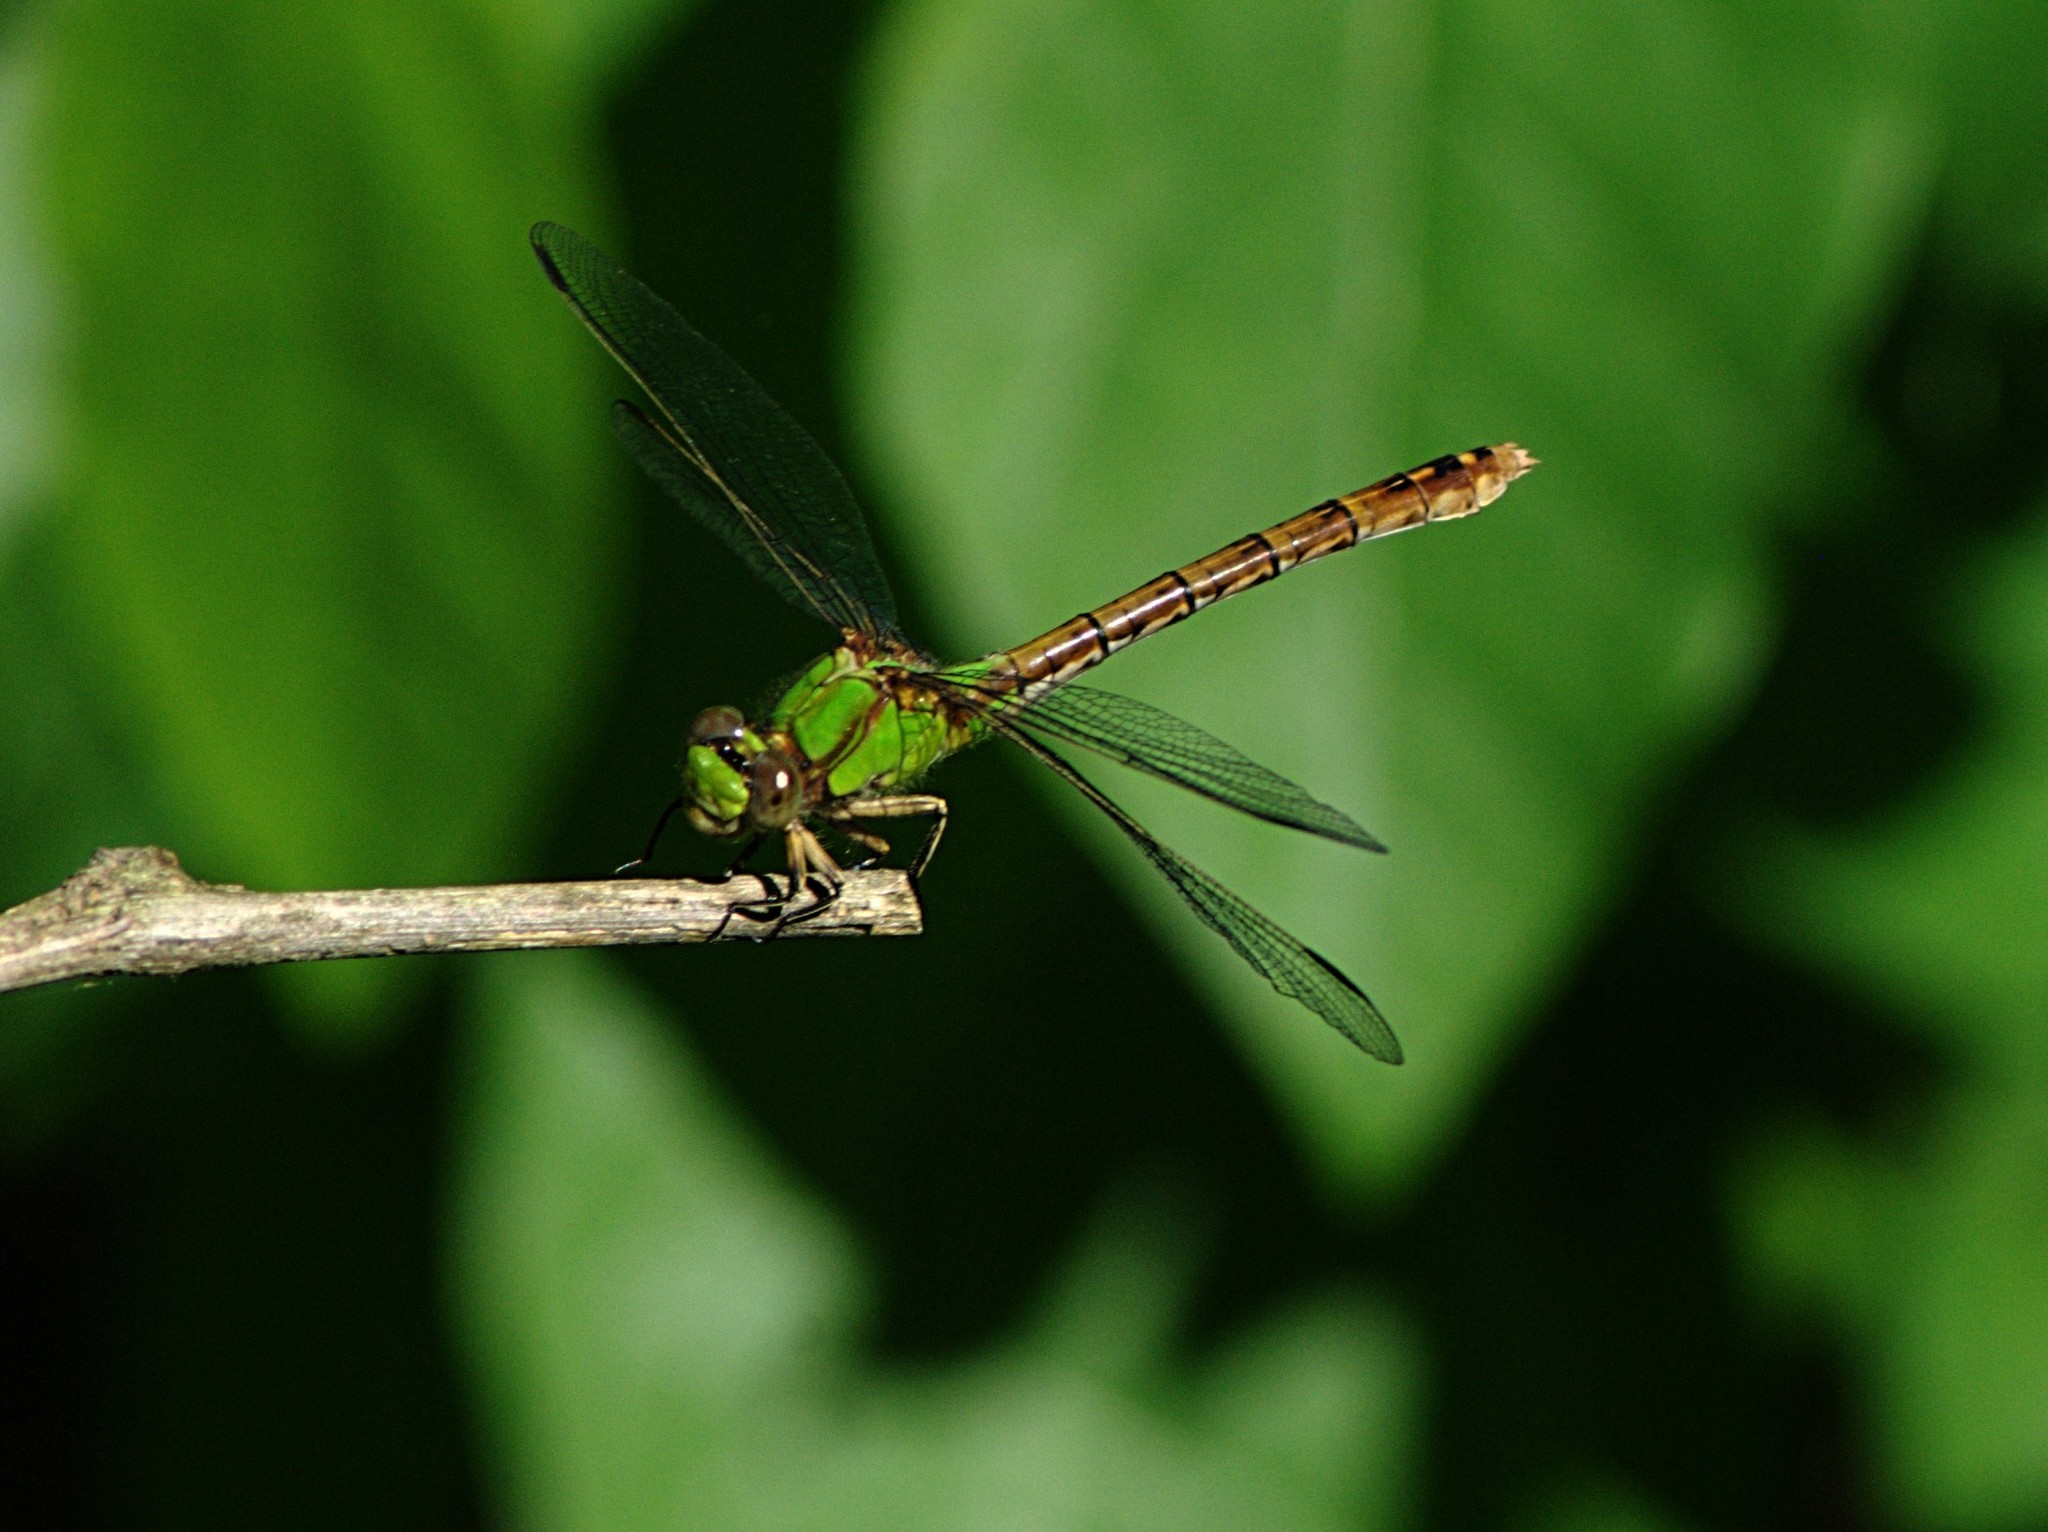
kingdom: Animalia
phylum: Arthropoda
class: Insecta
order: Odonata
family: Gomphidae
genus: Ophiogomphus
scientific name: Ophiogomphus rupinsulensis
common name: Rusty snaketail
